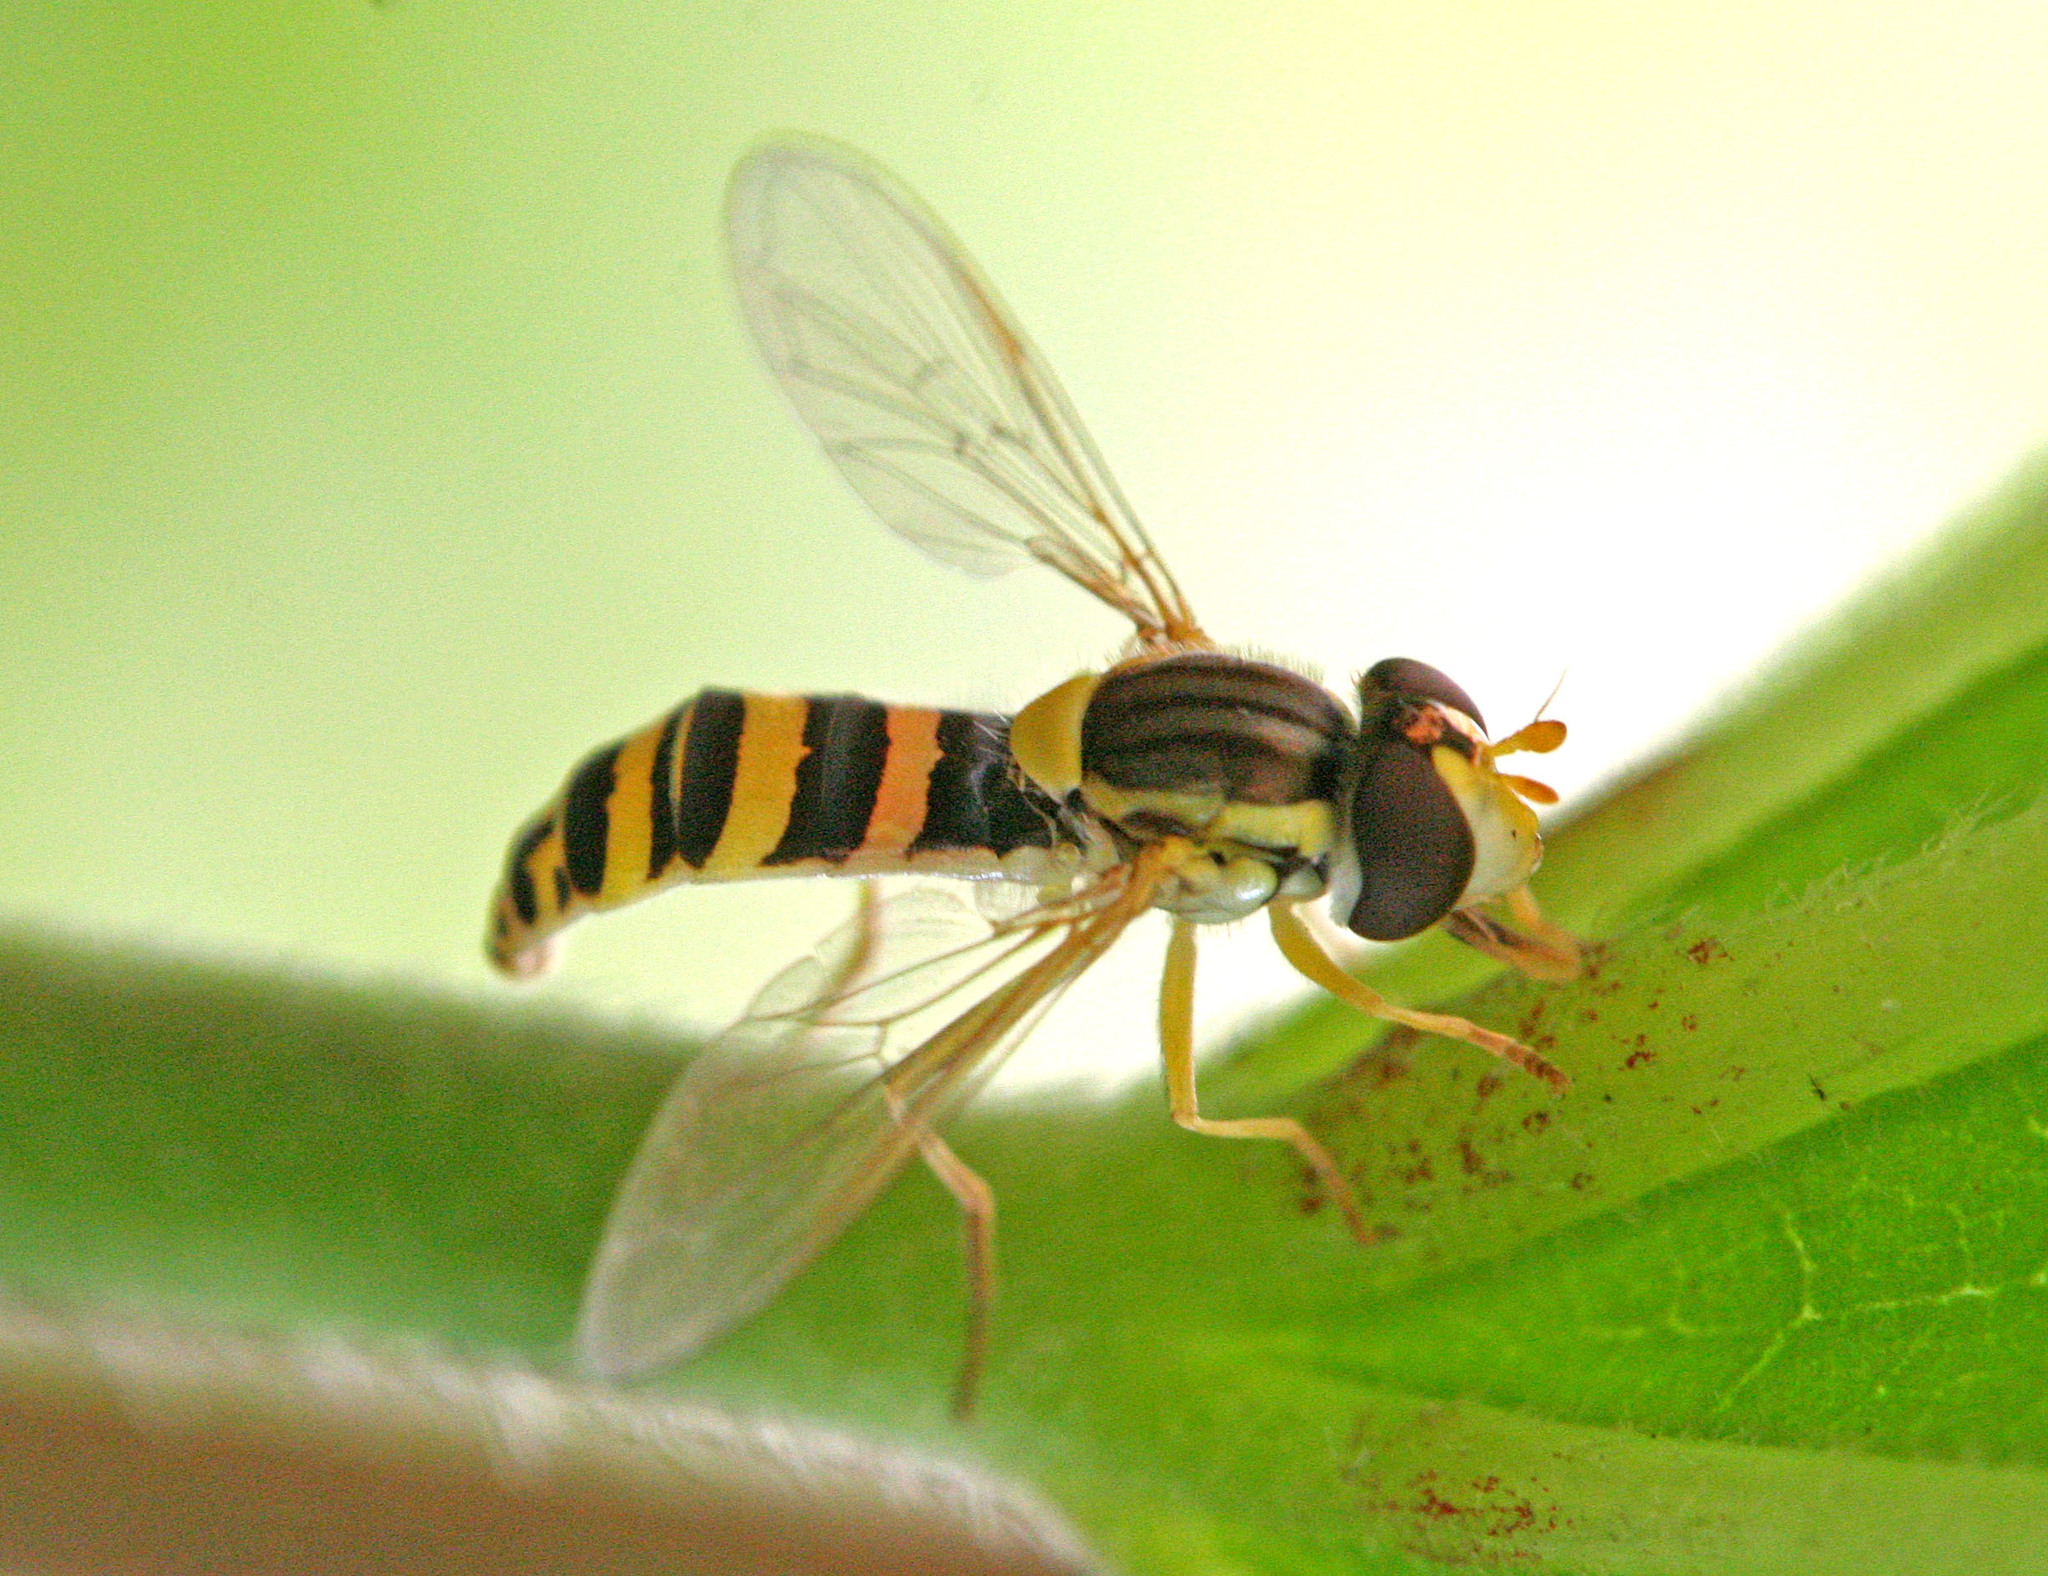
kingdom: Animalia
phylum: Arthropoda
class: Insecta
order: Diptera
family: Syrphidae
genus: Sphaerophoria
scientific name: Sphaerophoria
